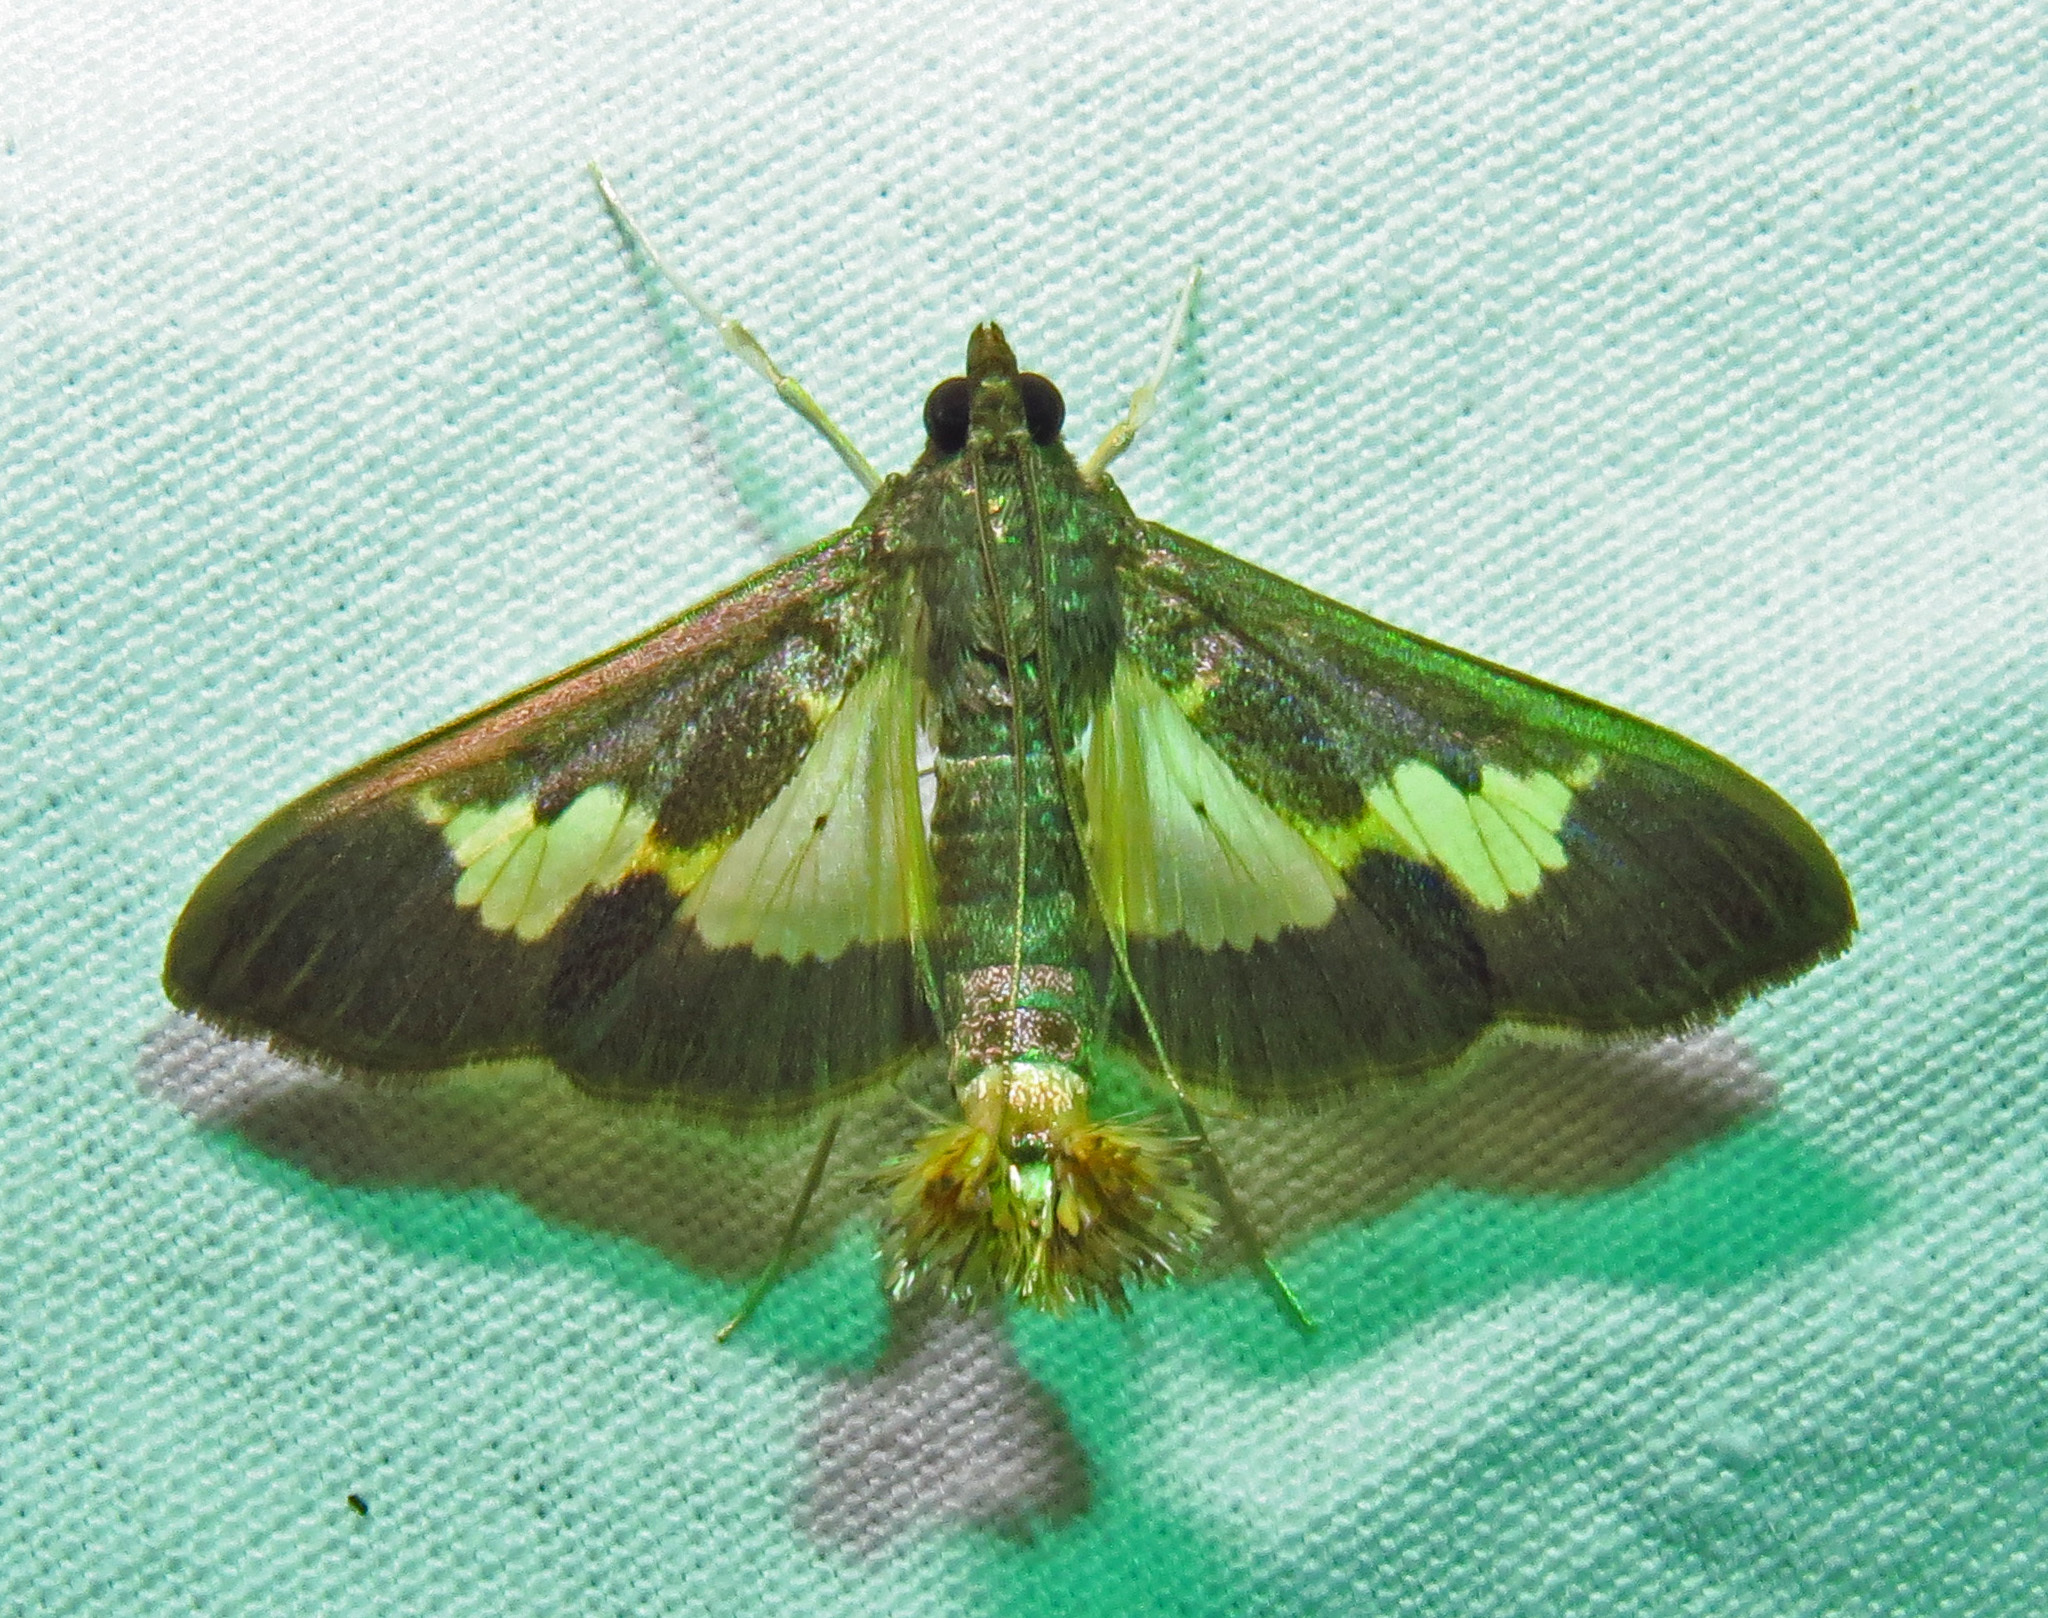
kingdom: Animalia
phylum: Arthropoda
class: Insecta
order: Lepidoptera
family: Crambidae
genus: Cryptographis
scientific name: Cryptographis nitidalis
